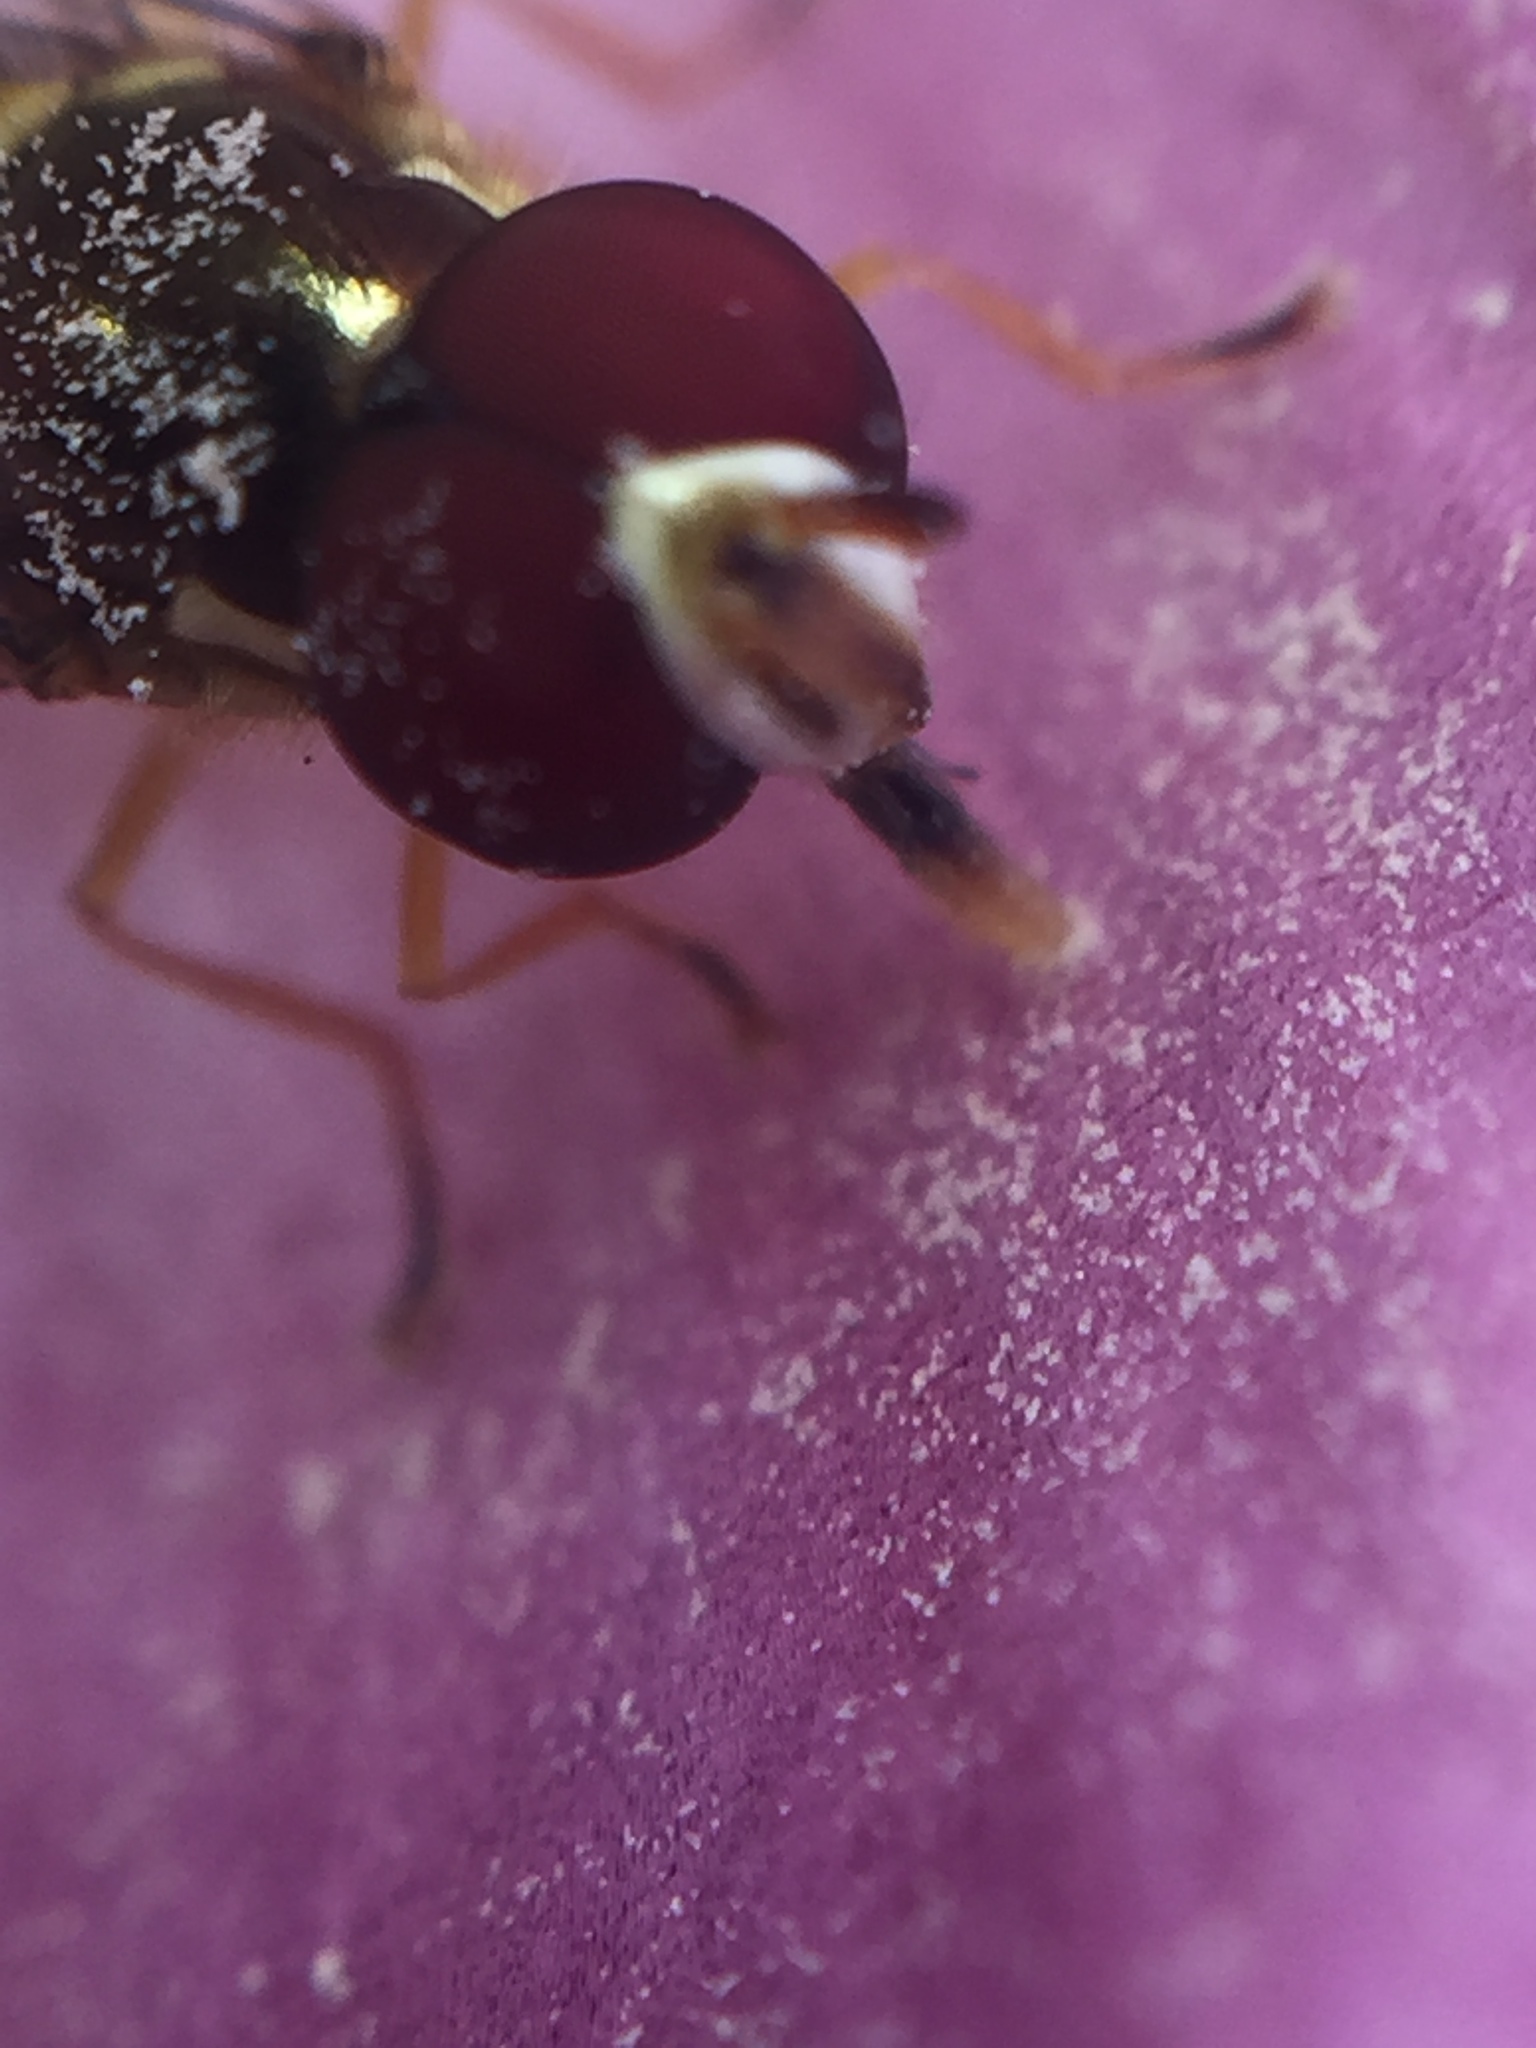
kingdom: Animalia
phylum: Arthropoda
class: Insecta
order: Diptera
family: Syrphidae
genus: Allograpta
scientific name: Allograpta obliqua
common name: Common oblique syrphid
